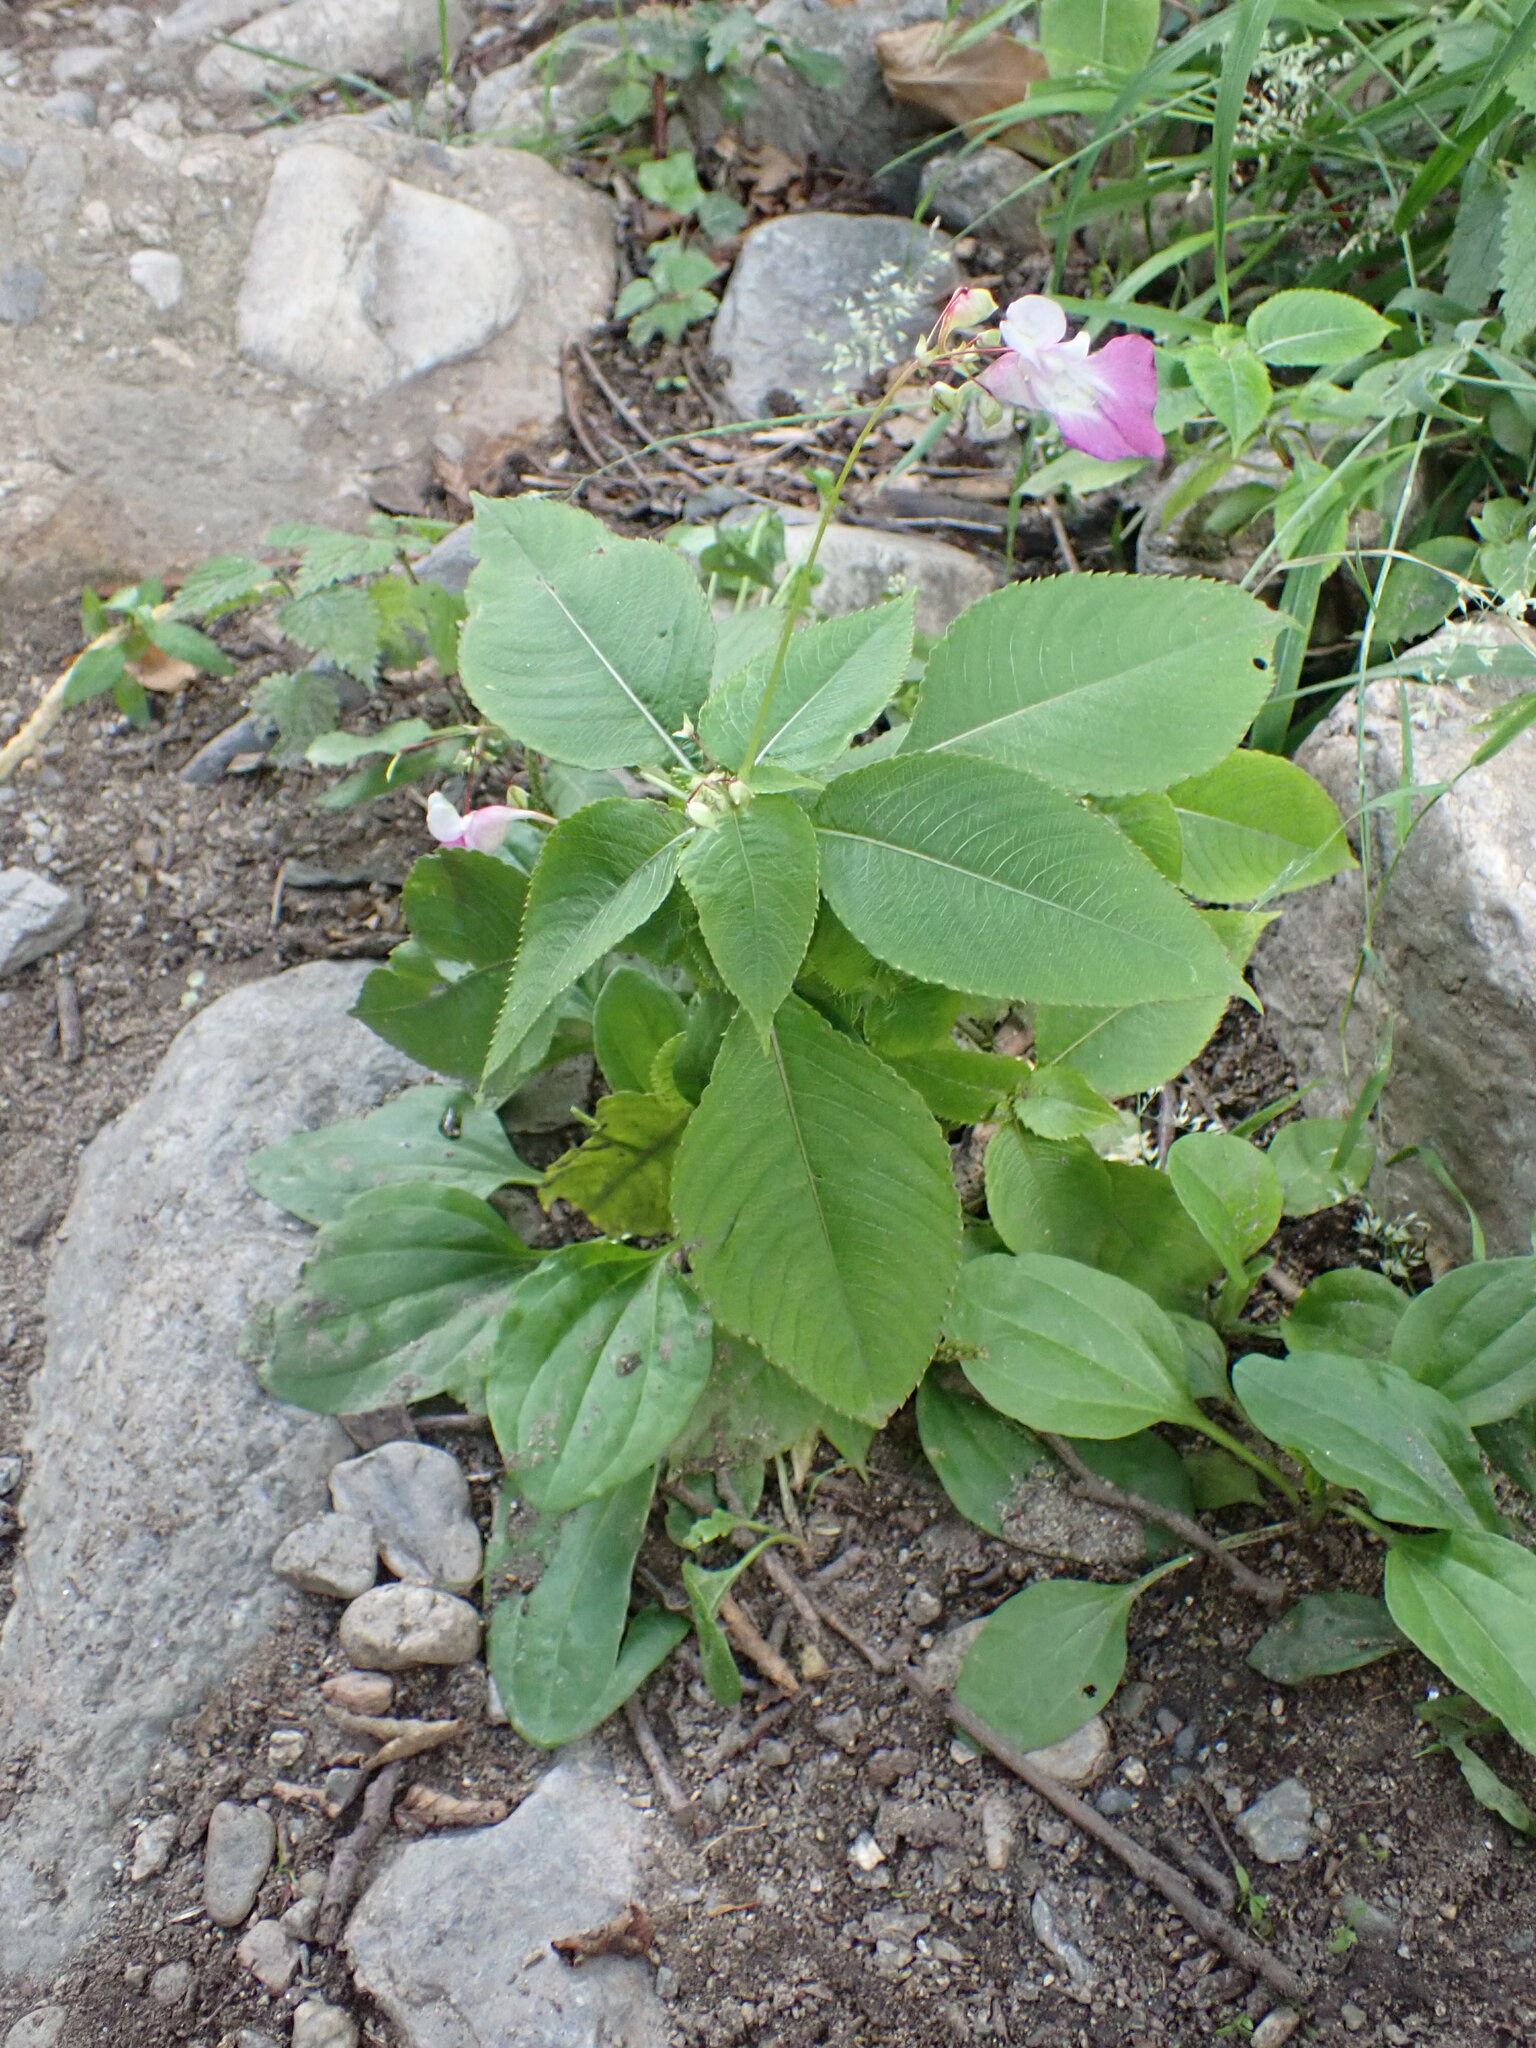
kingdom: Plantae
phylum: Tracheophyta
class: Magnoliopsida
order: Ericales
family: Balsaminaceae
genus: Impatiens
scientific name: Impatiens balfourii
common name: Balfour's touch-me-not
